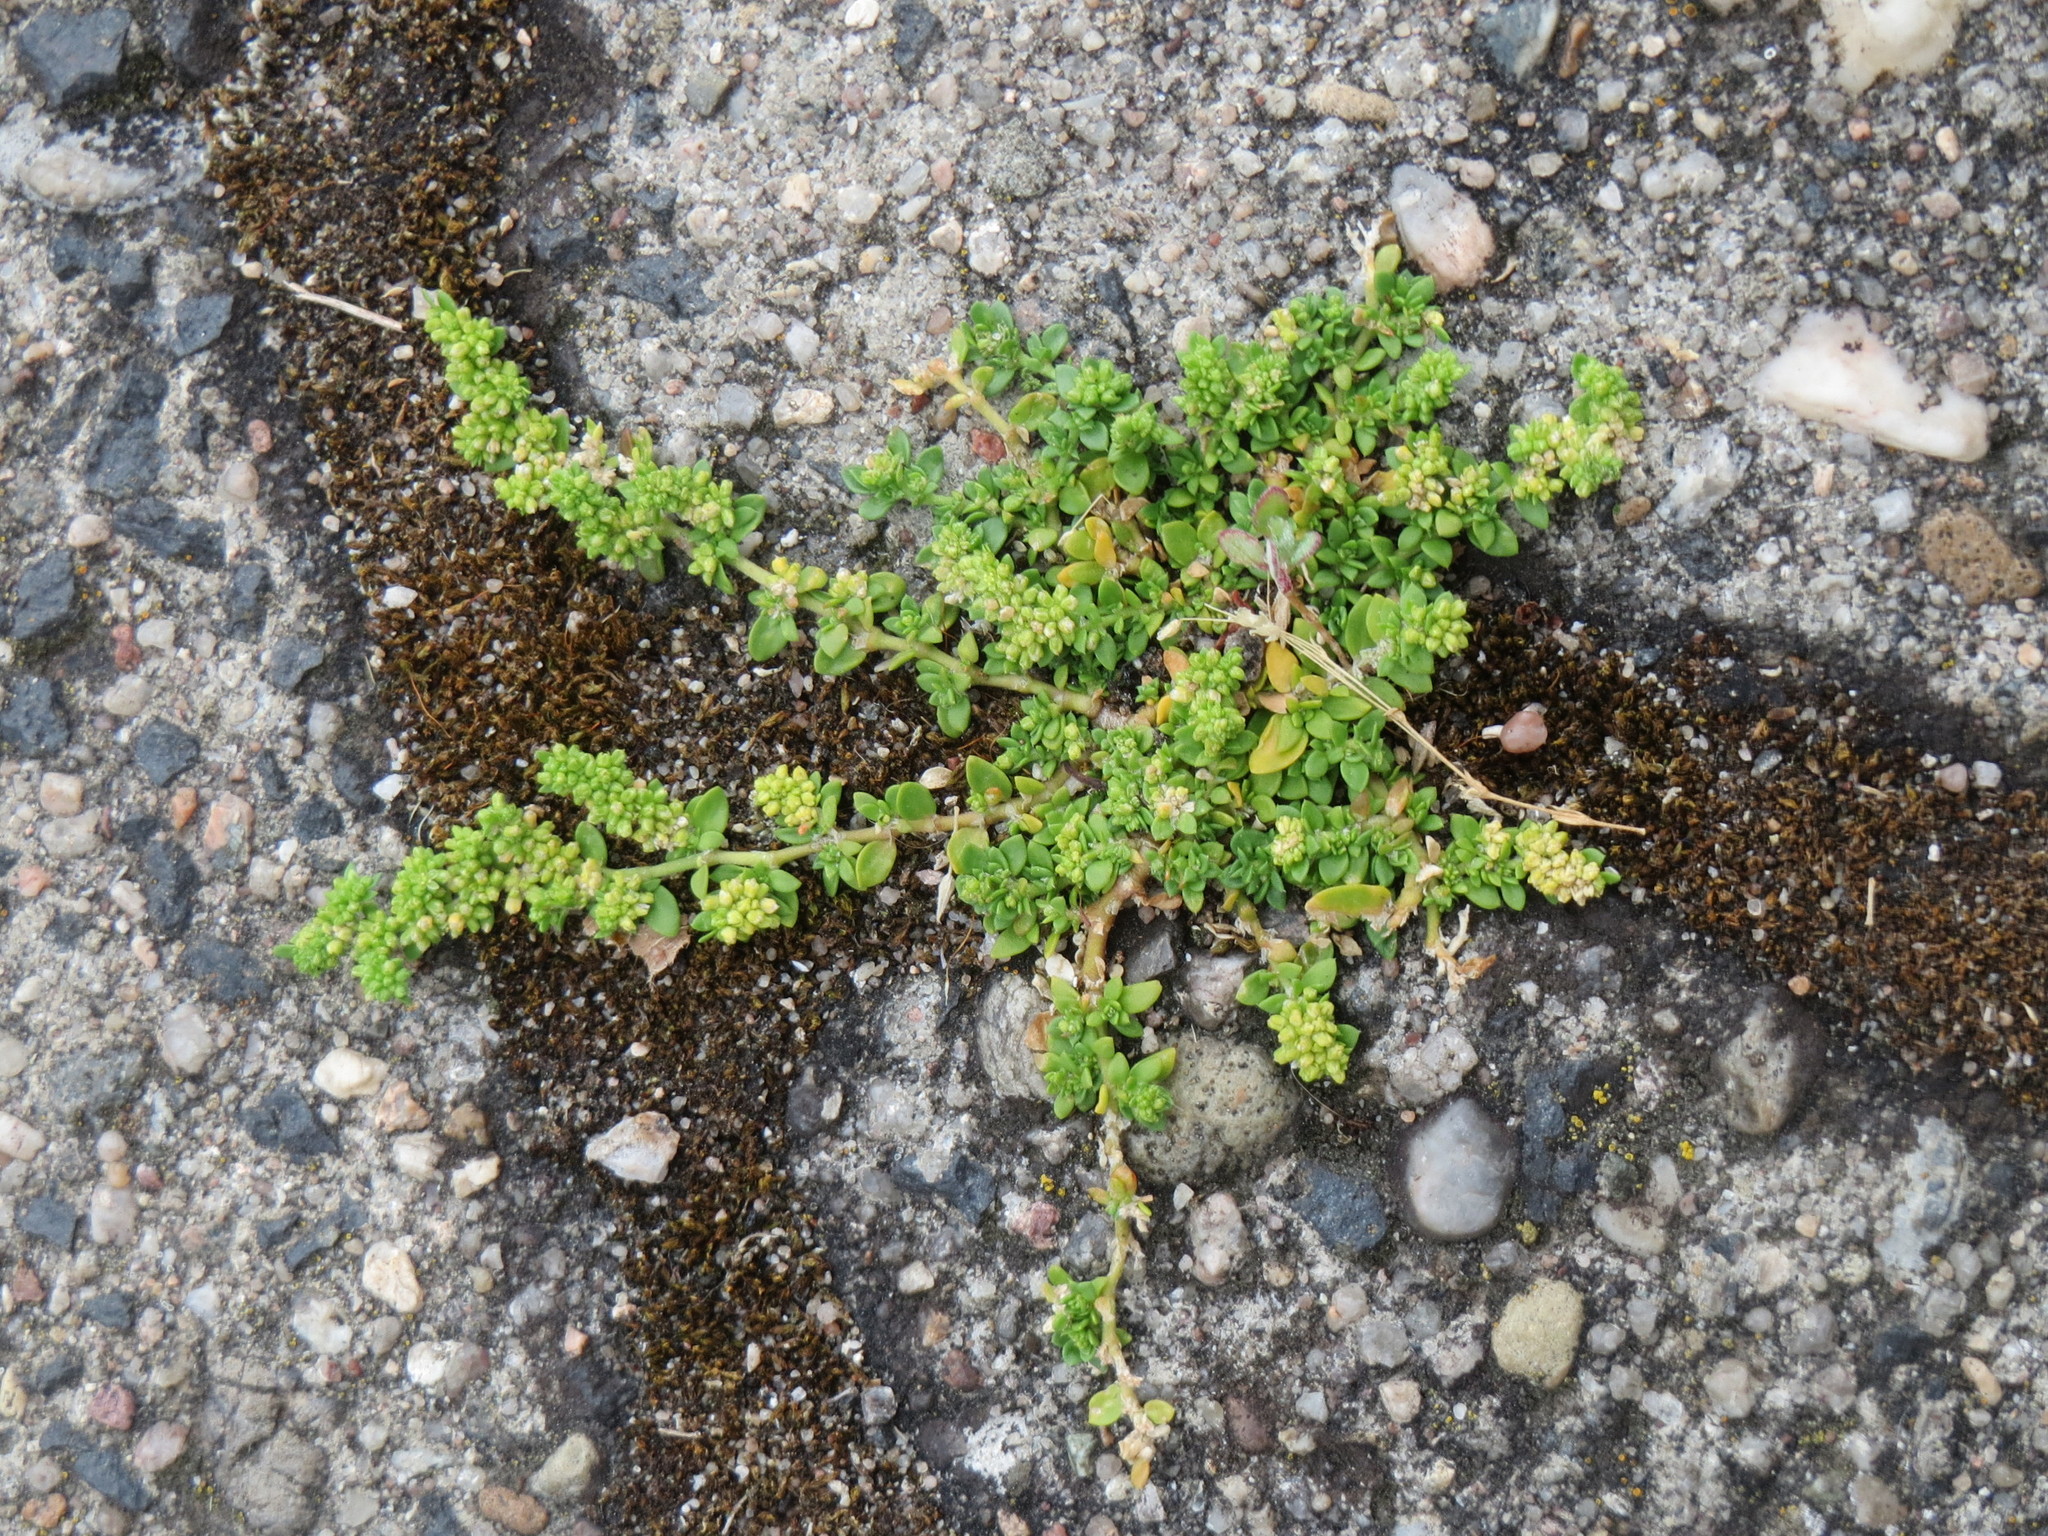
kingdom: Plantae
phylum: Tracheophyta
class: Magnoliopsida
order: Caryophyllales
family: Caryophyllaceae
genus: Herniaria
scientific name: Herniaria glabra
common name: Smooth rupturewort
